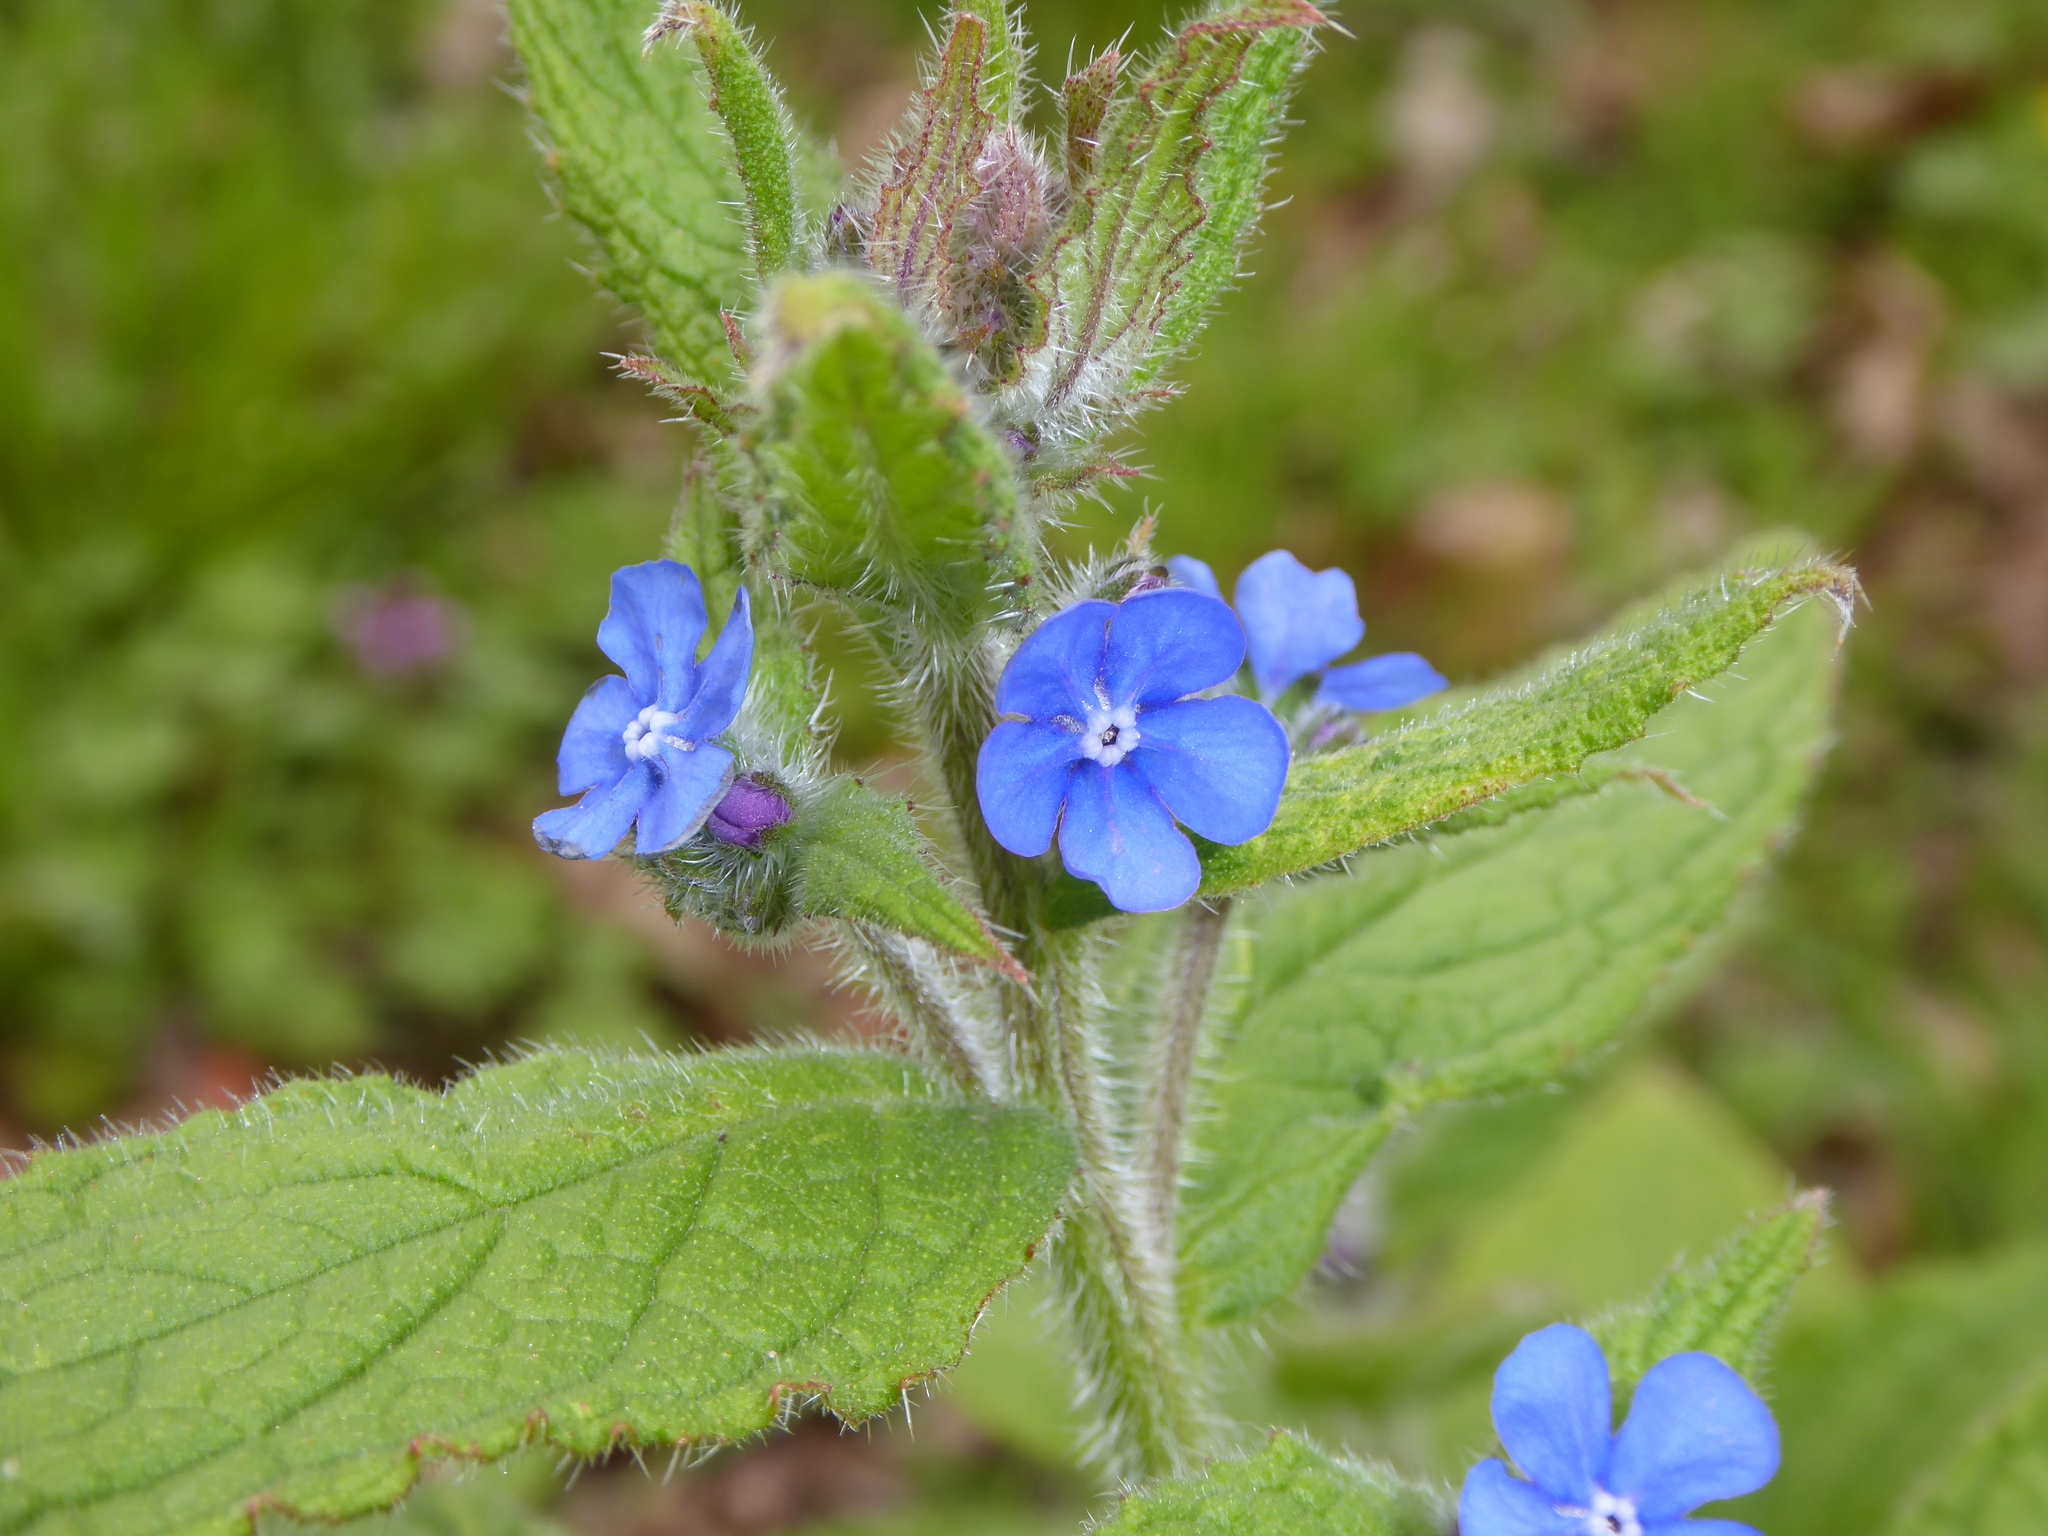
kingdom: Plantae
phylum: Tracheophyta
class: Magnoliopsida
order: Boraginales
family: Boraginaceae
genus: Pentaglottis
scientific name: Pentaglottis sempervirens
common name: Green alkanet
